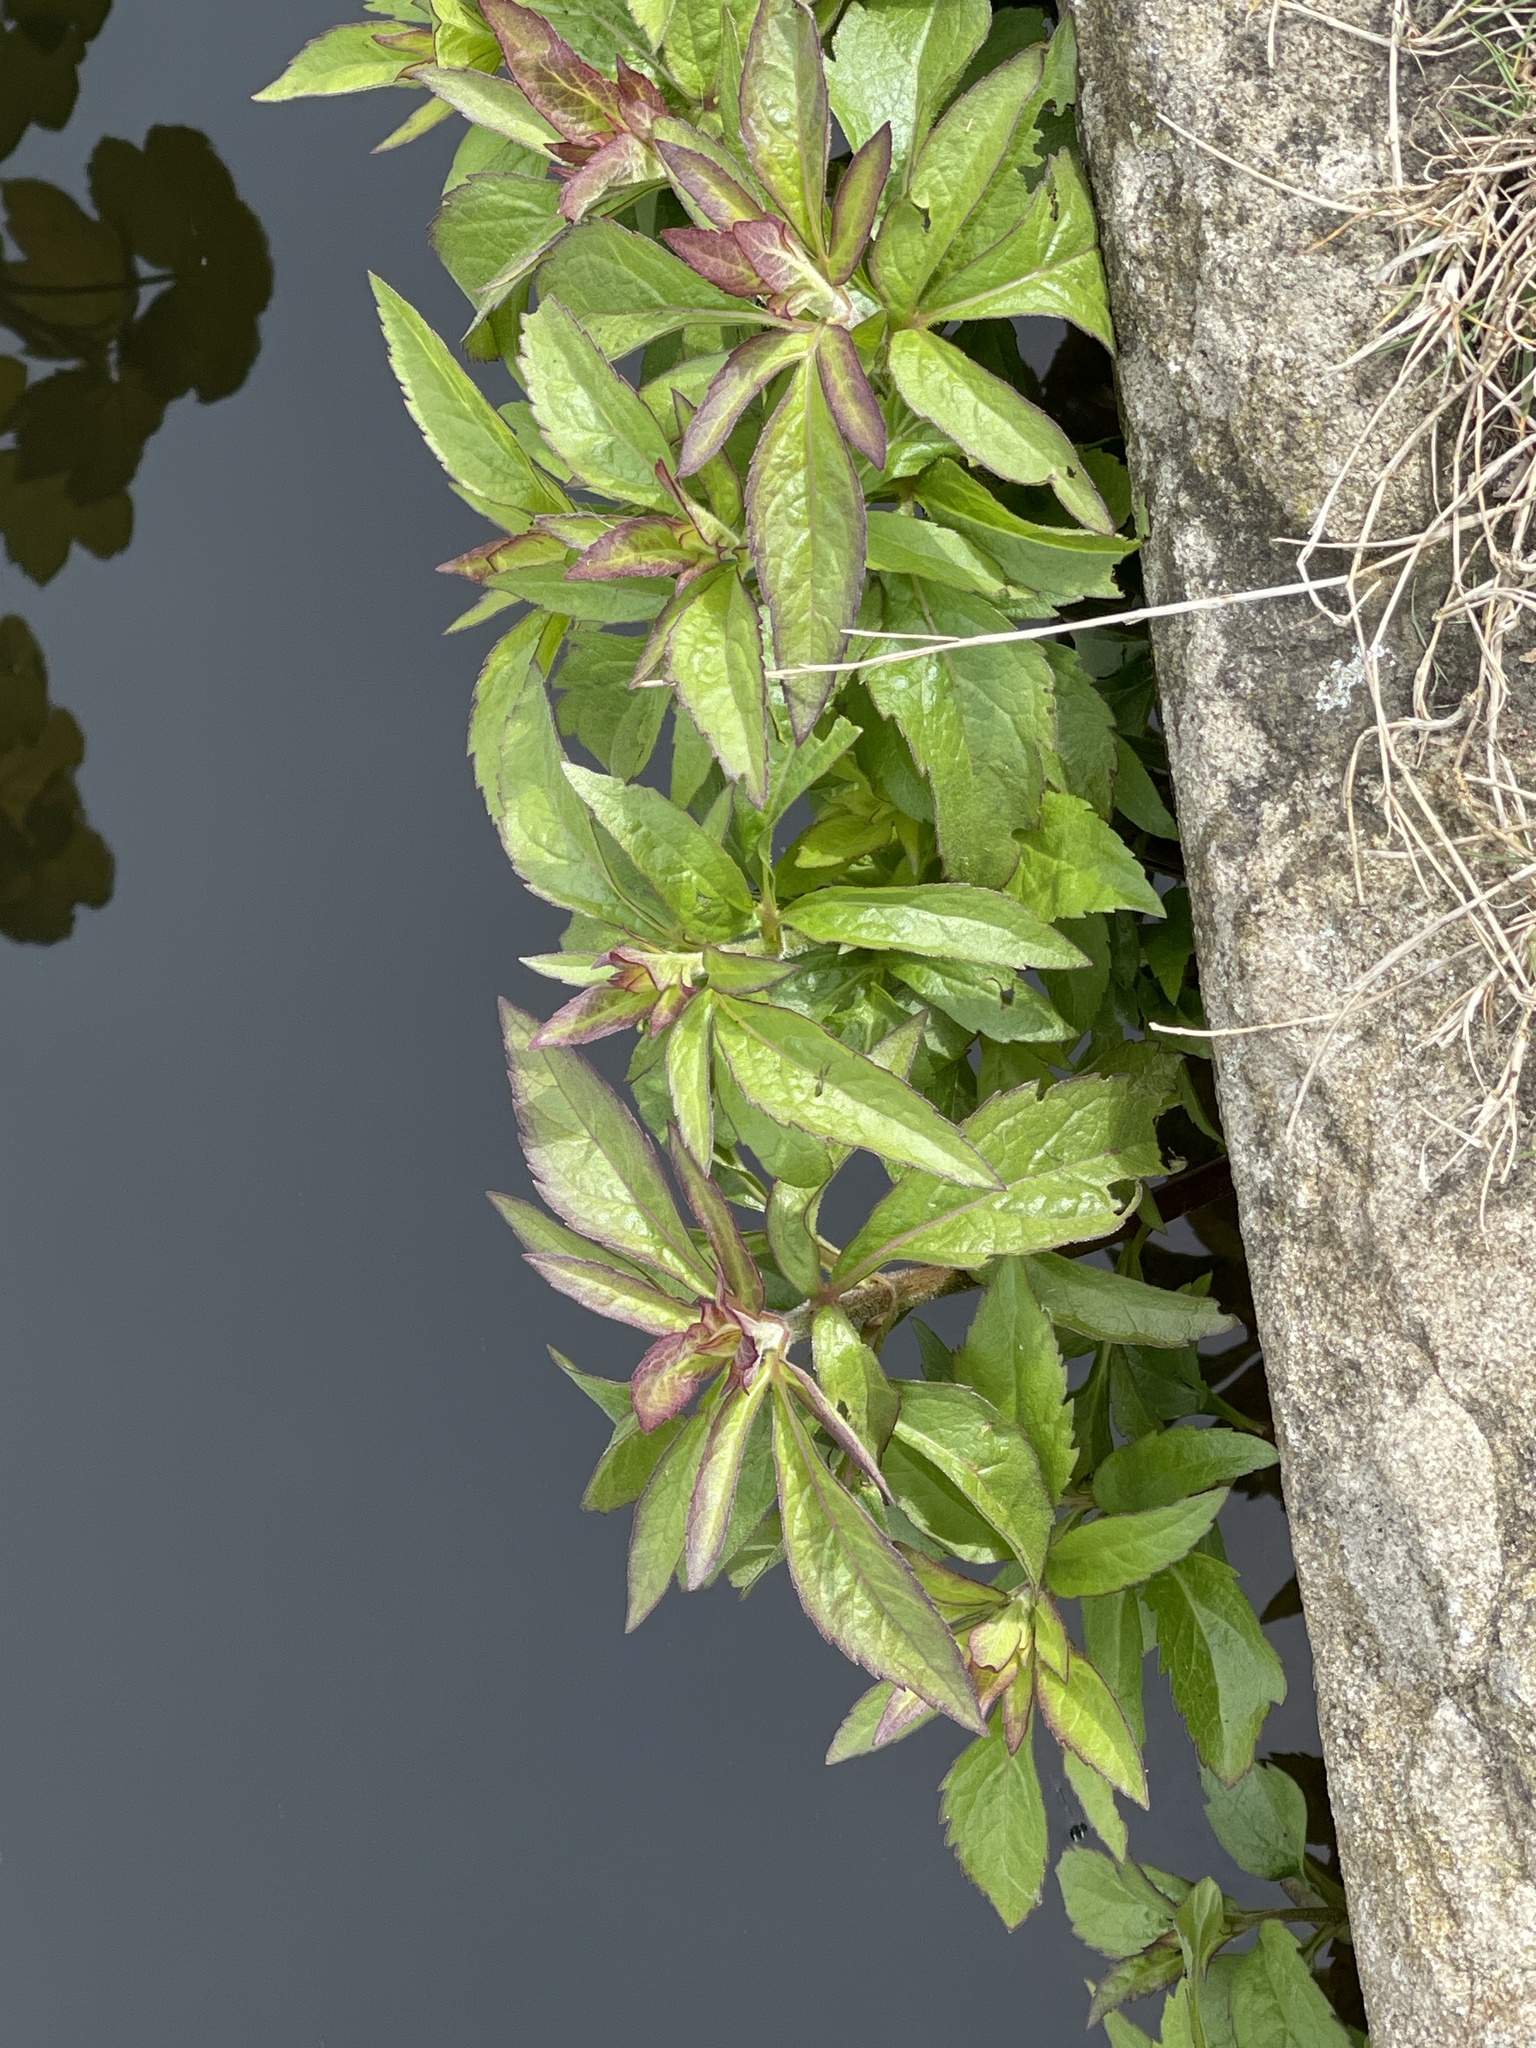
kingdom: Plantae
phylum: Tracheophyta
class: Magnoliopsida
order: Asterales
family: Asteraceae
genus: Eupatorium
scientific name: Eupatorium cannabinum
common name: Hemp-agrimony
